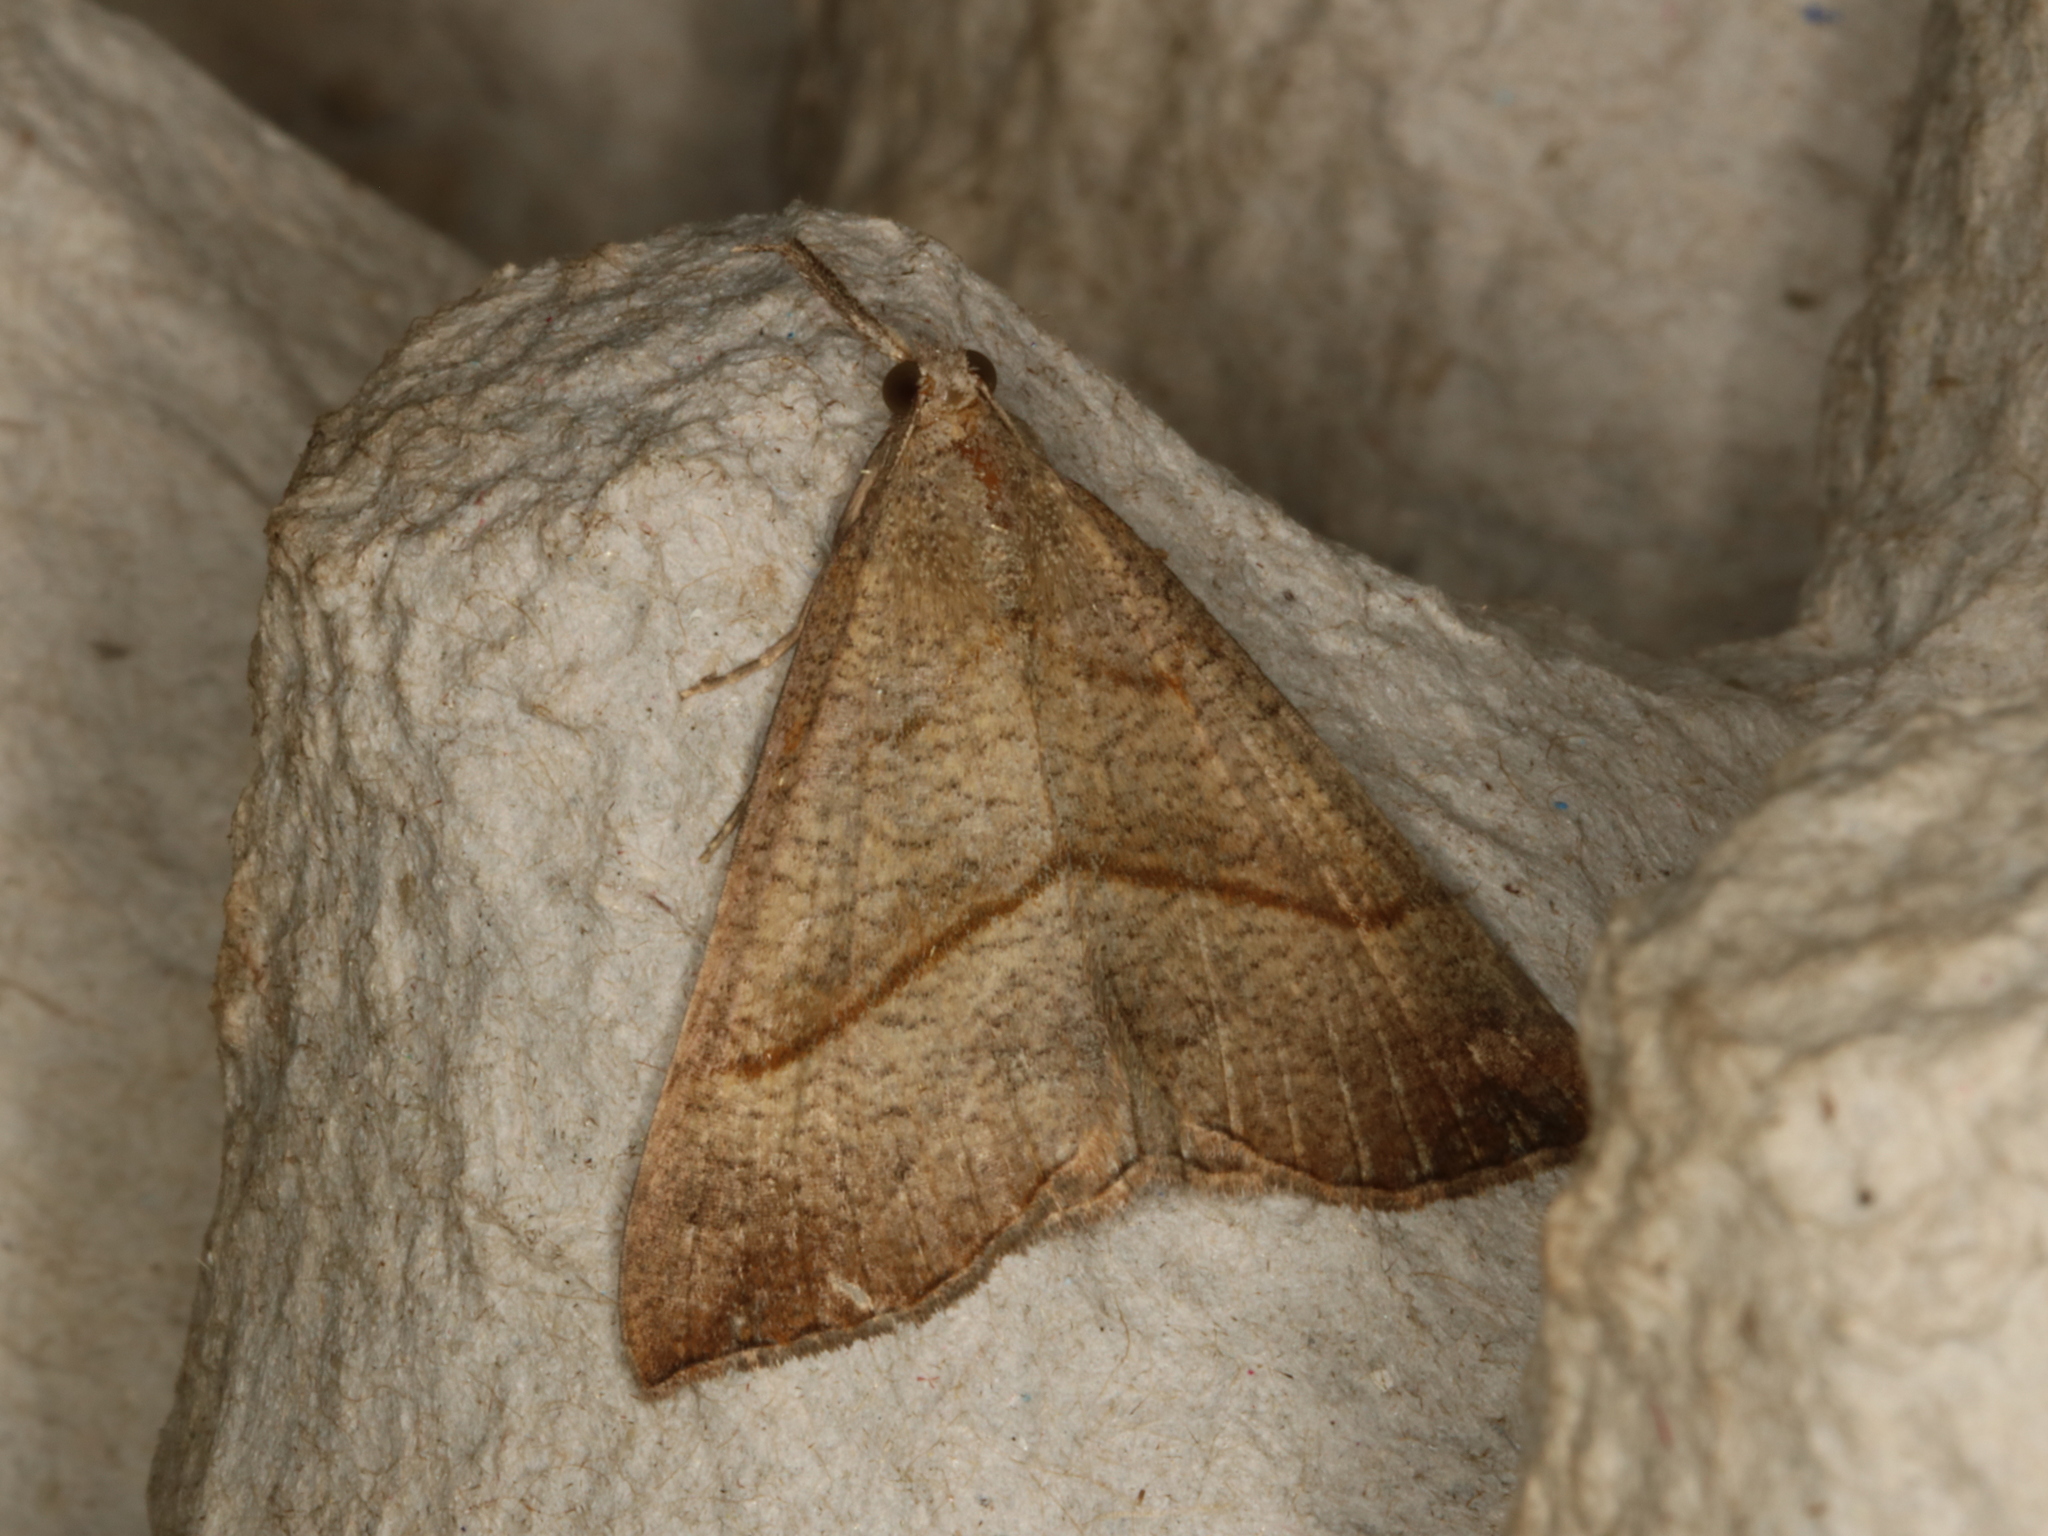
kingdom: Animalia
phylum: Arthropoda
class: Insecta
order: Lepidoptera
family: Erebidae
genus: Hypena
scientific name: Hypena proboscidalis
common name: Snout
